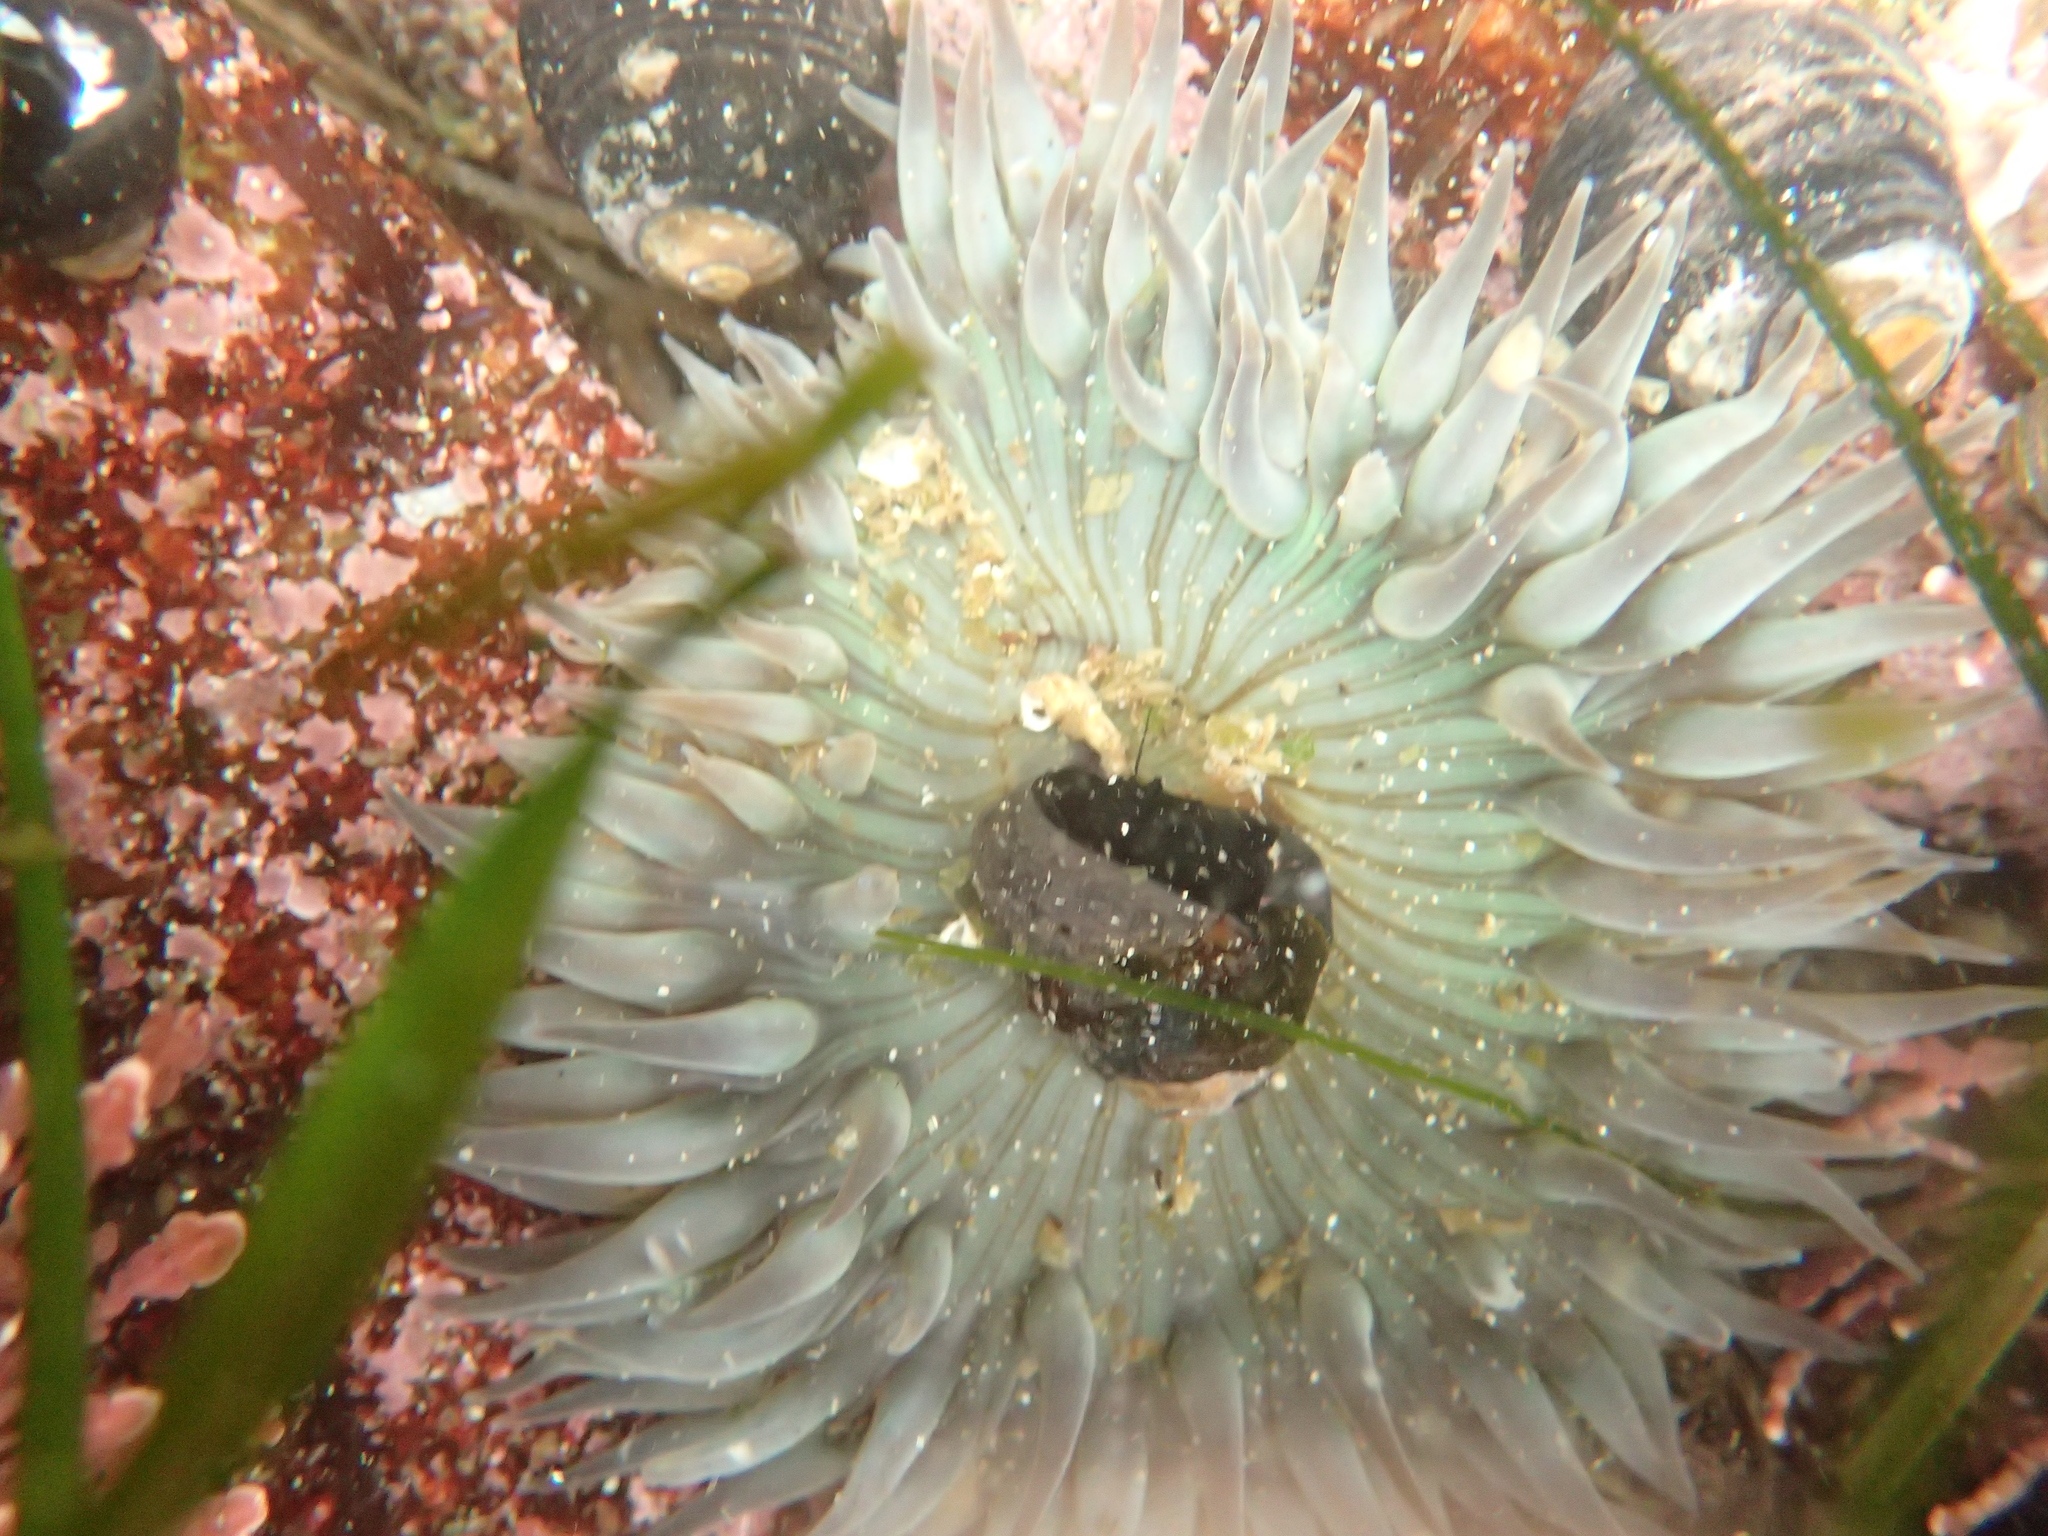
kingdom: Animalia
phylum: Cnidaria
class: Anthozoa
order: Actiniaria
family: Actiniidae
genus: Anthopleura
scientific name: Anthopleura sola
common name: Sun anemone
